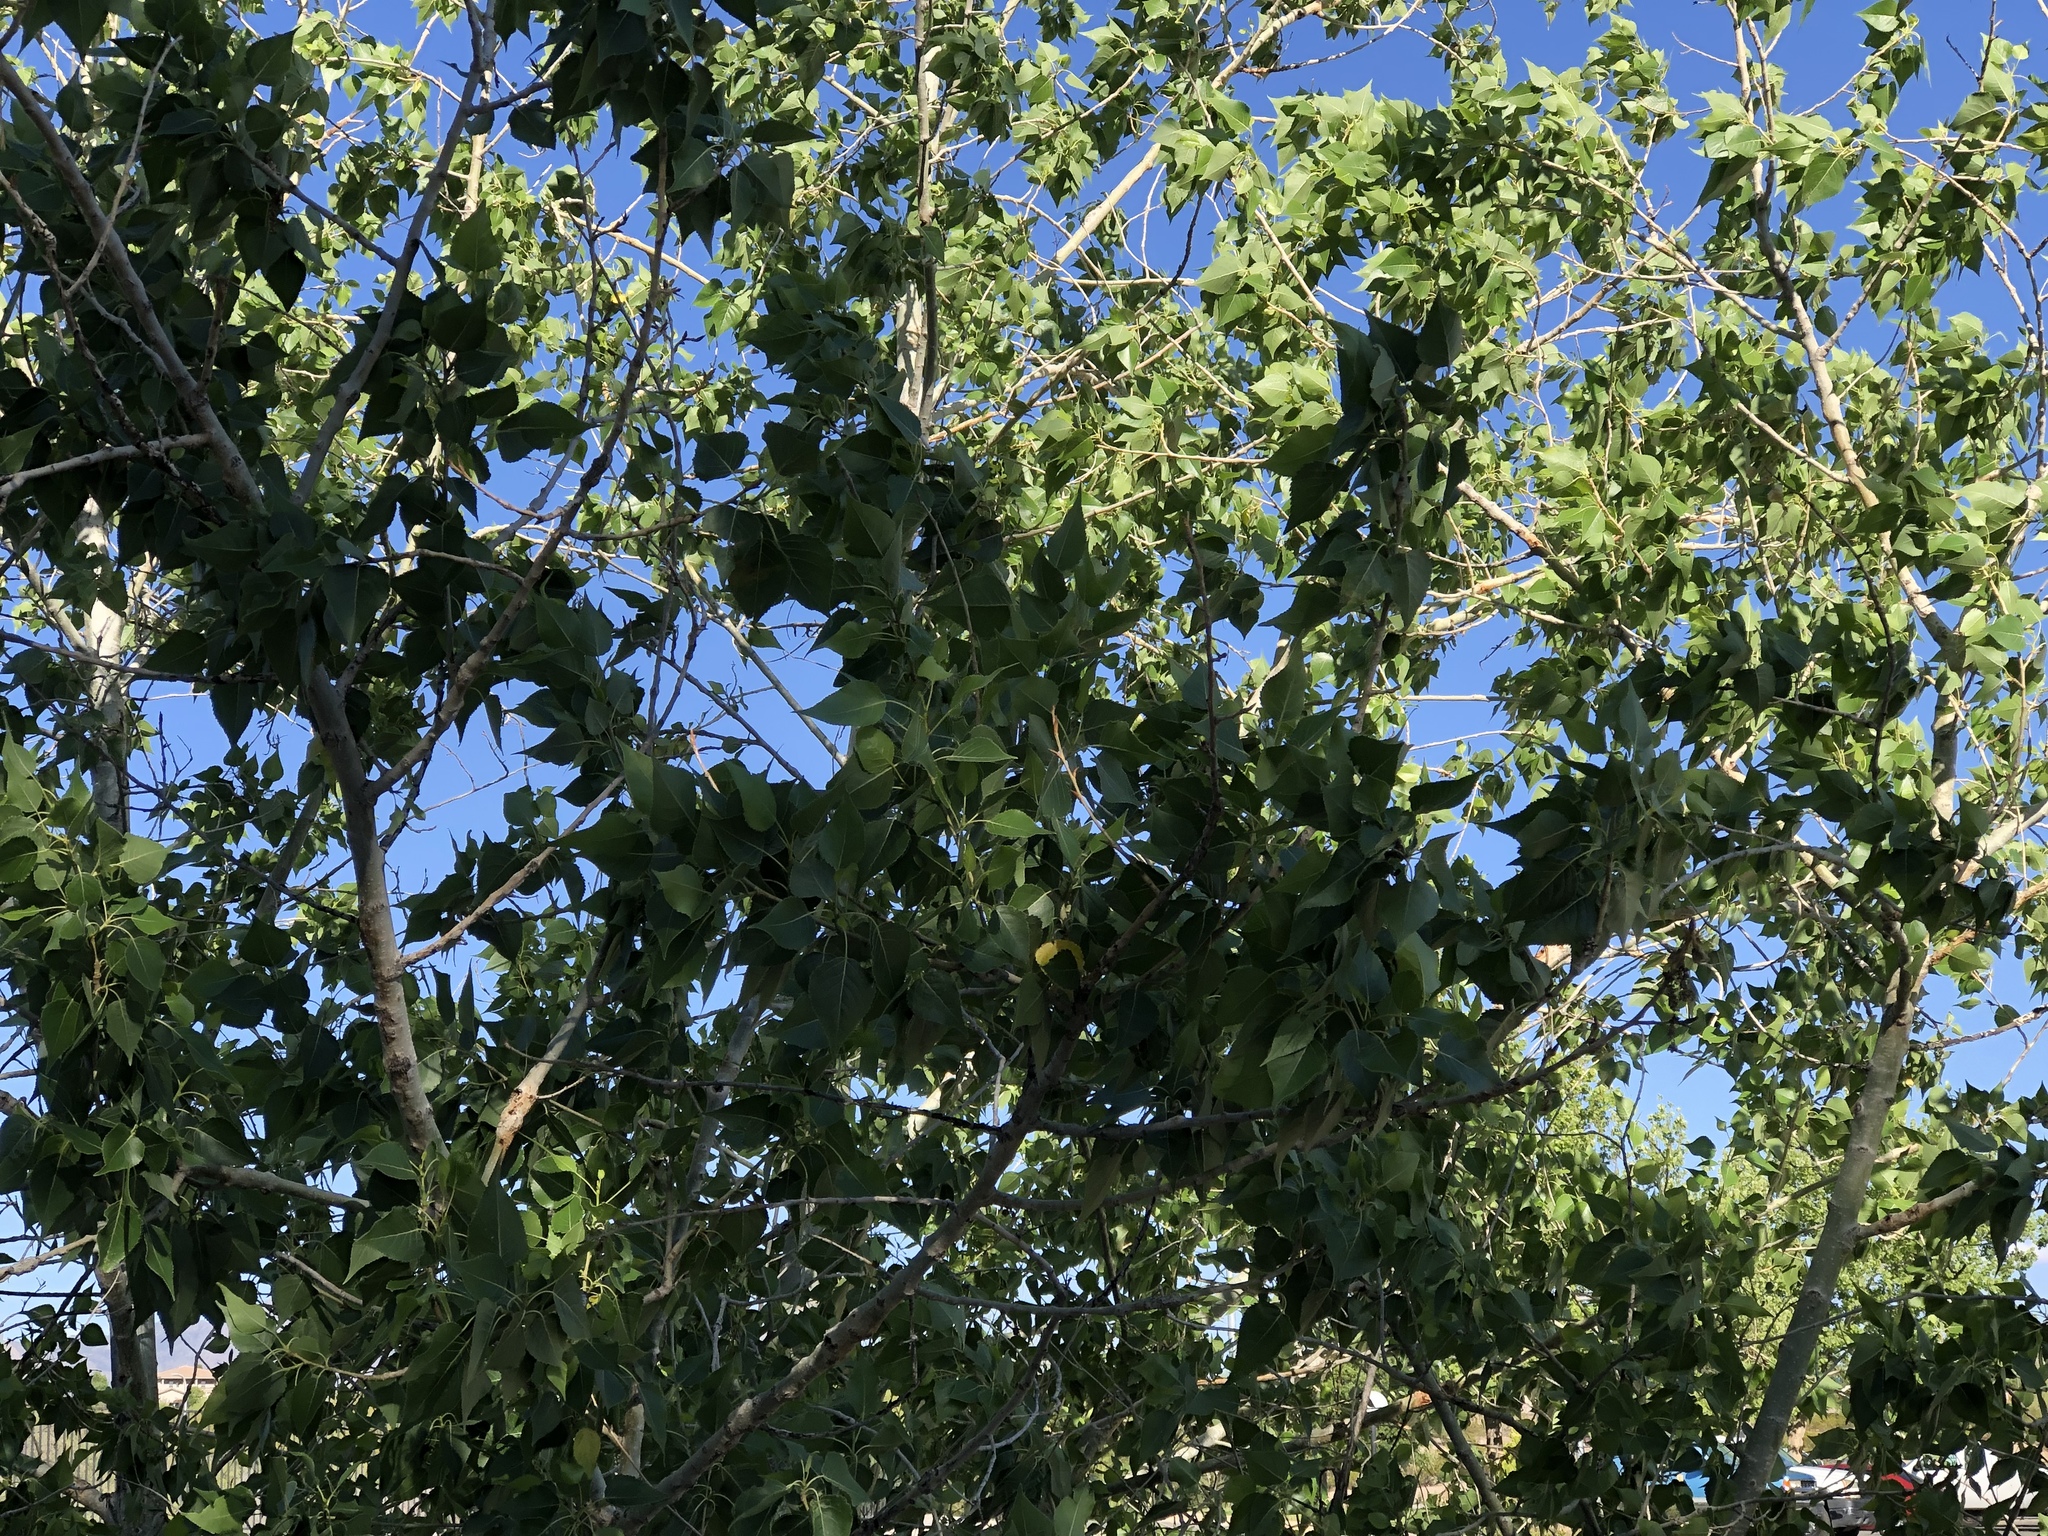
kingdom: Plantae
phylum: Tracheophyta
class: Magnoliopsida
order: Malpighiales
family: Salicaceae
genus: Populus
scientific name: Populus fremontii
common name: Fremont's cottonwood
